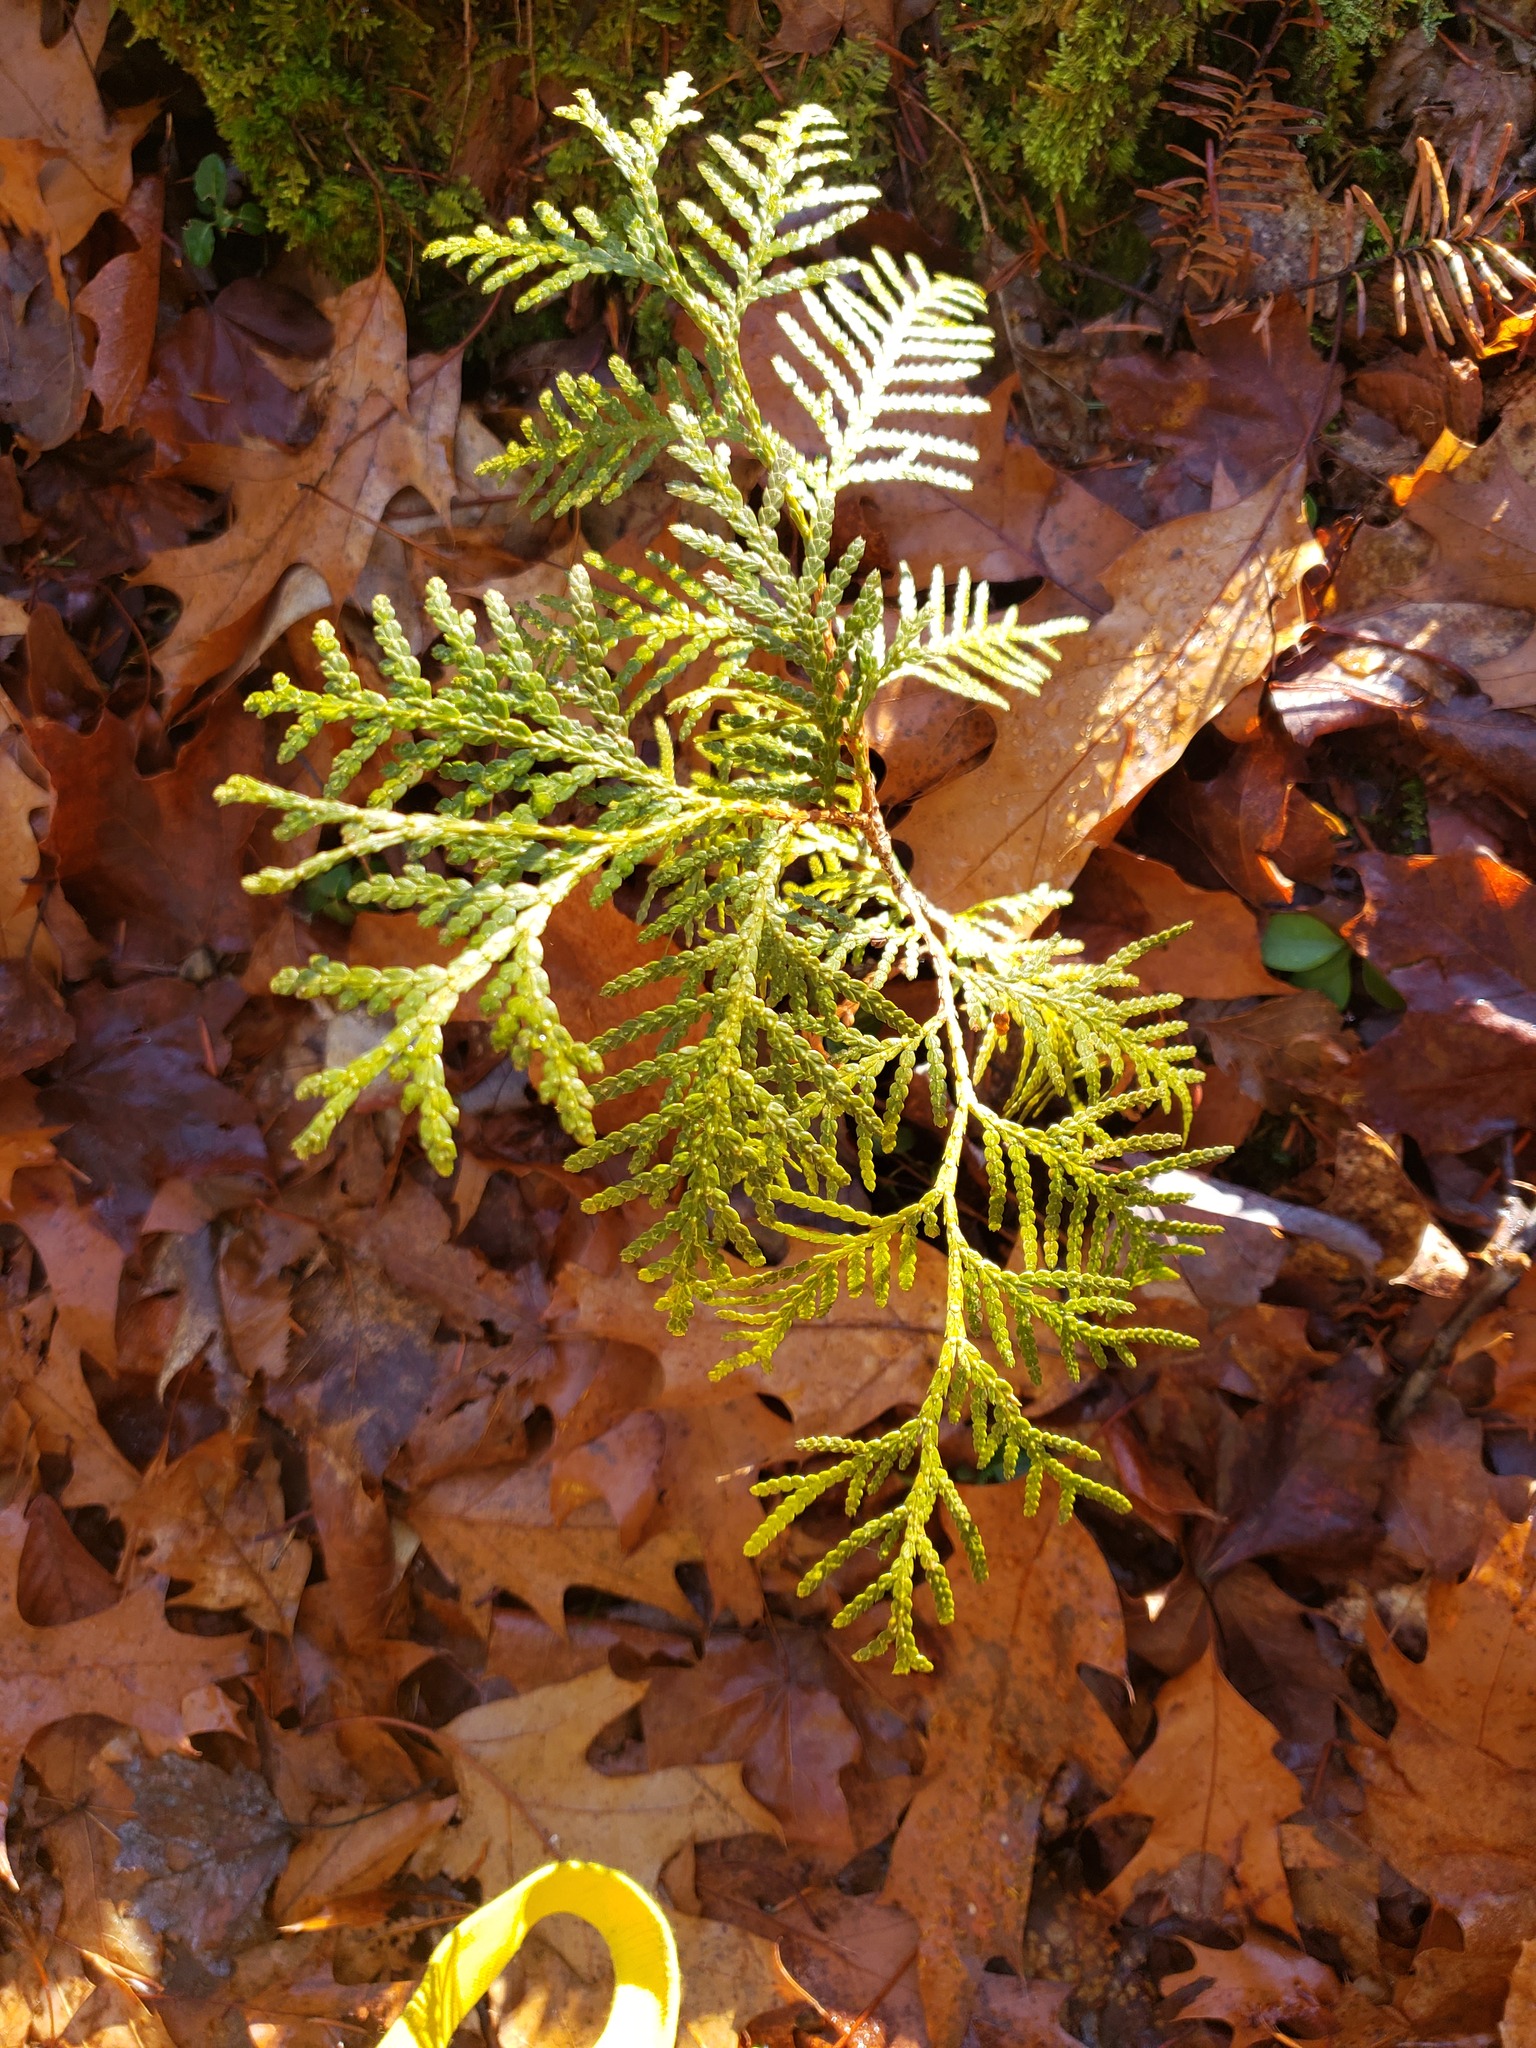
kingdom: Plantae
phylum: Tracheophyta
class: Pinopsida
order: Pinales
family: Cupressaceae
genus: Thuja
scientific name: Thuja occidentalis
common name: Northern white-cedar
